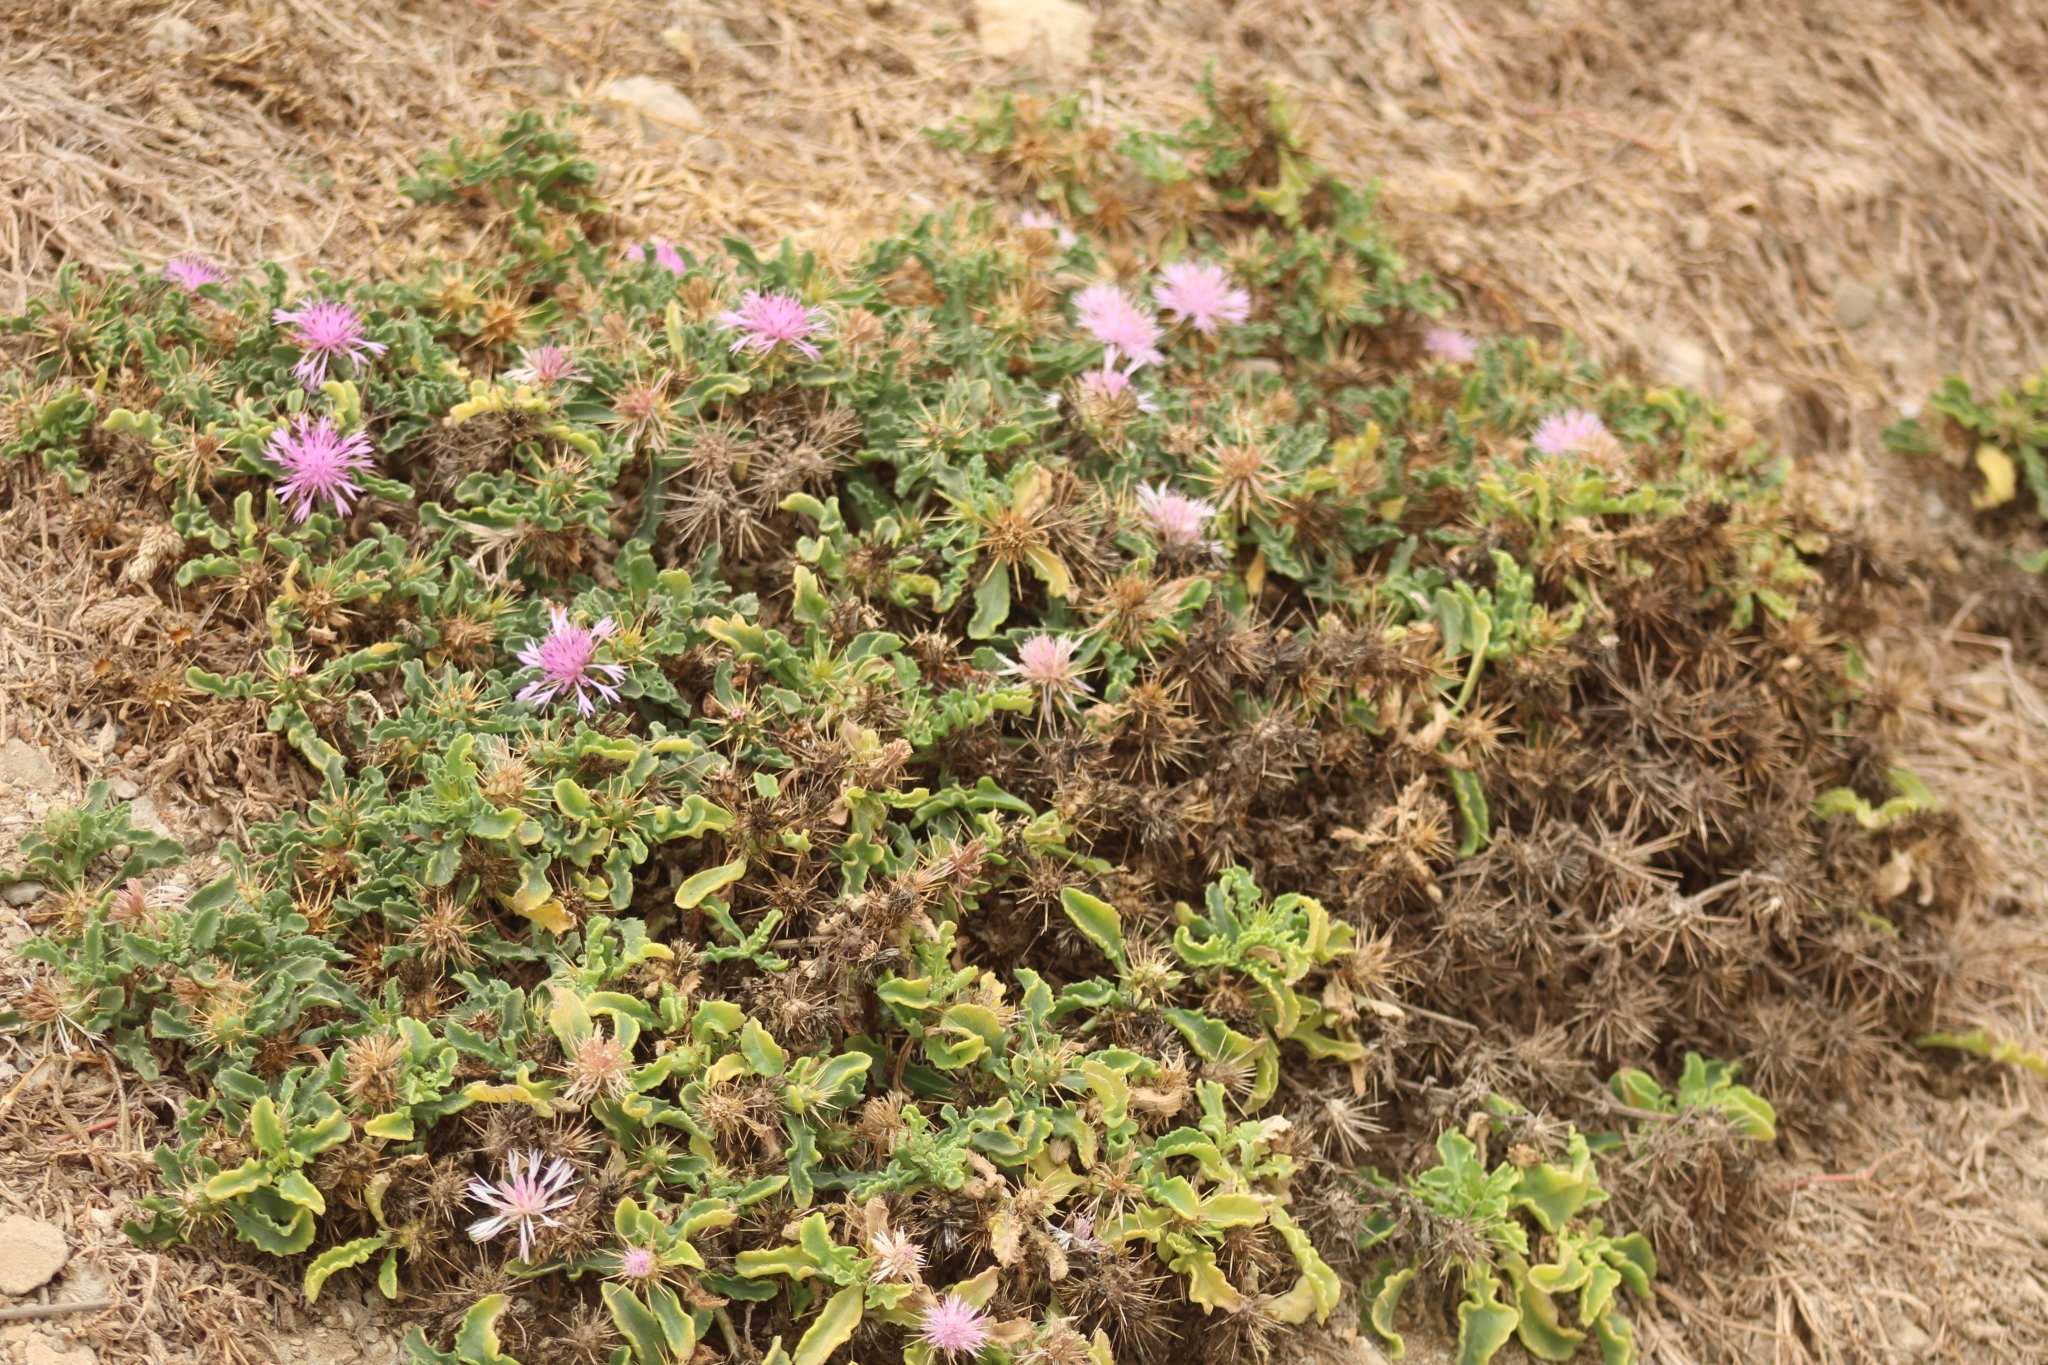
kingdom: Plantae
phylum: Tracheophyta
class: Magnoliopsida
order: Asterales
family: Asteraceae
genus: Centaurea
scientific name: Centaurea senegalensis
